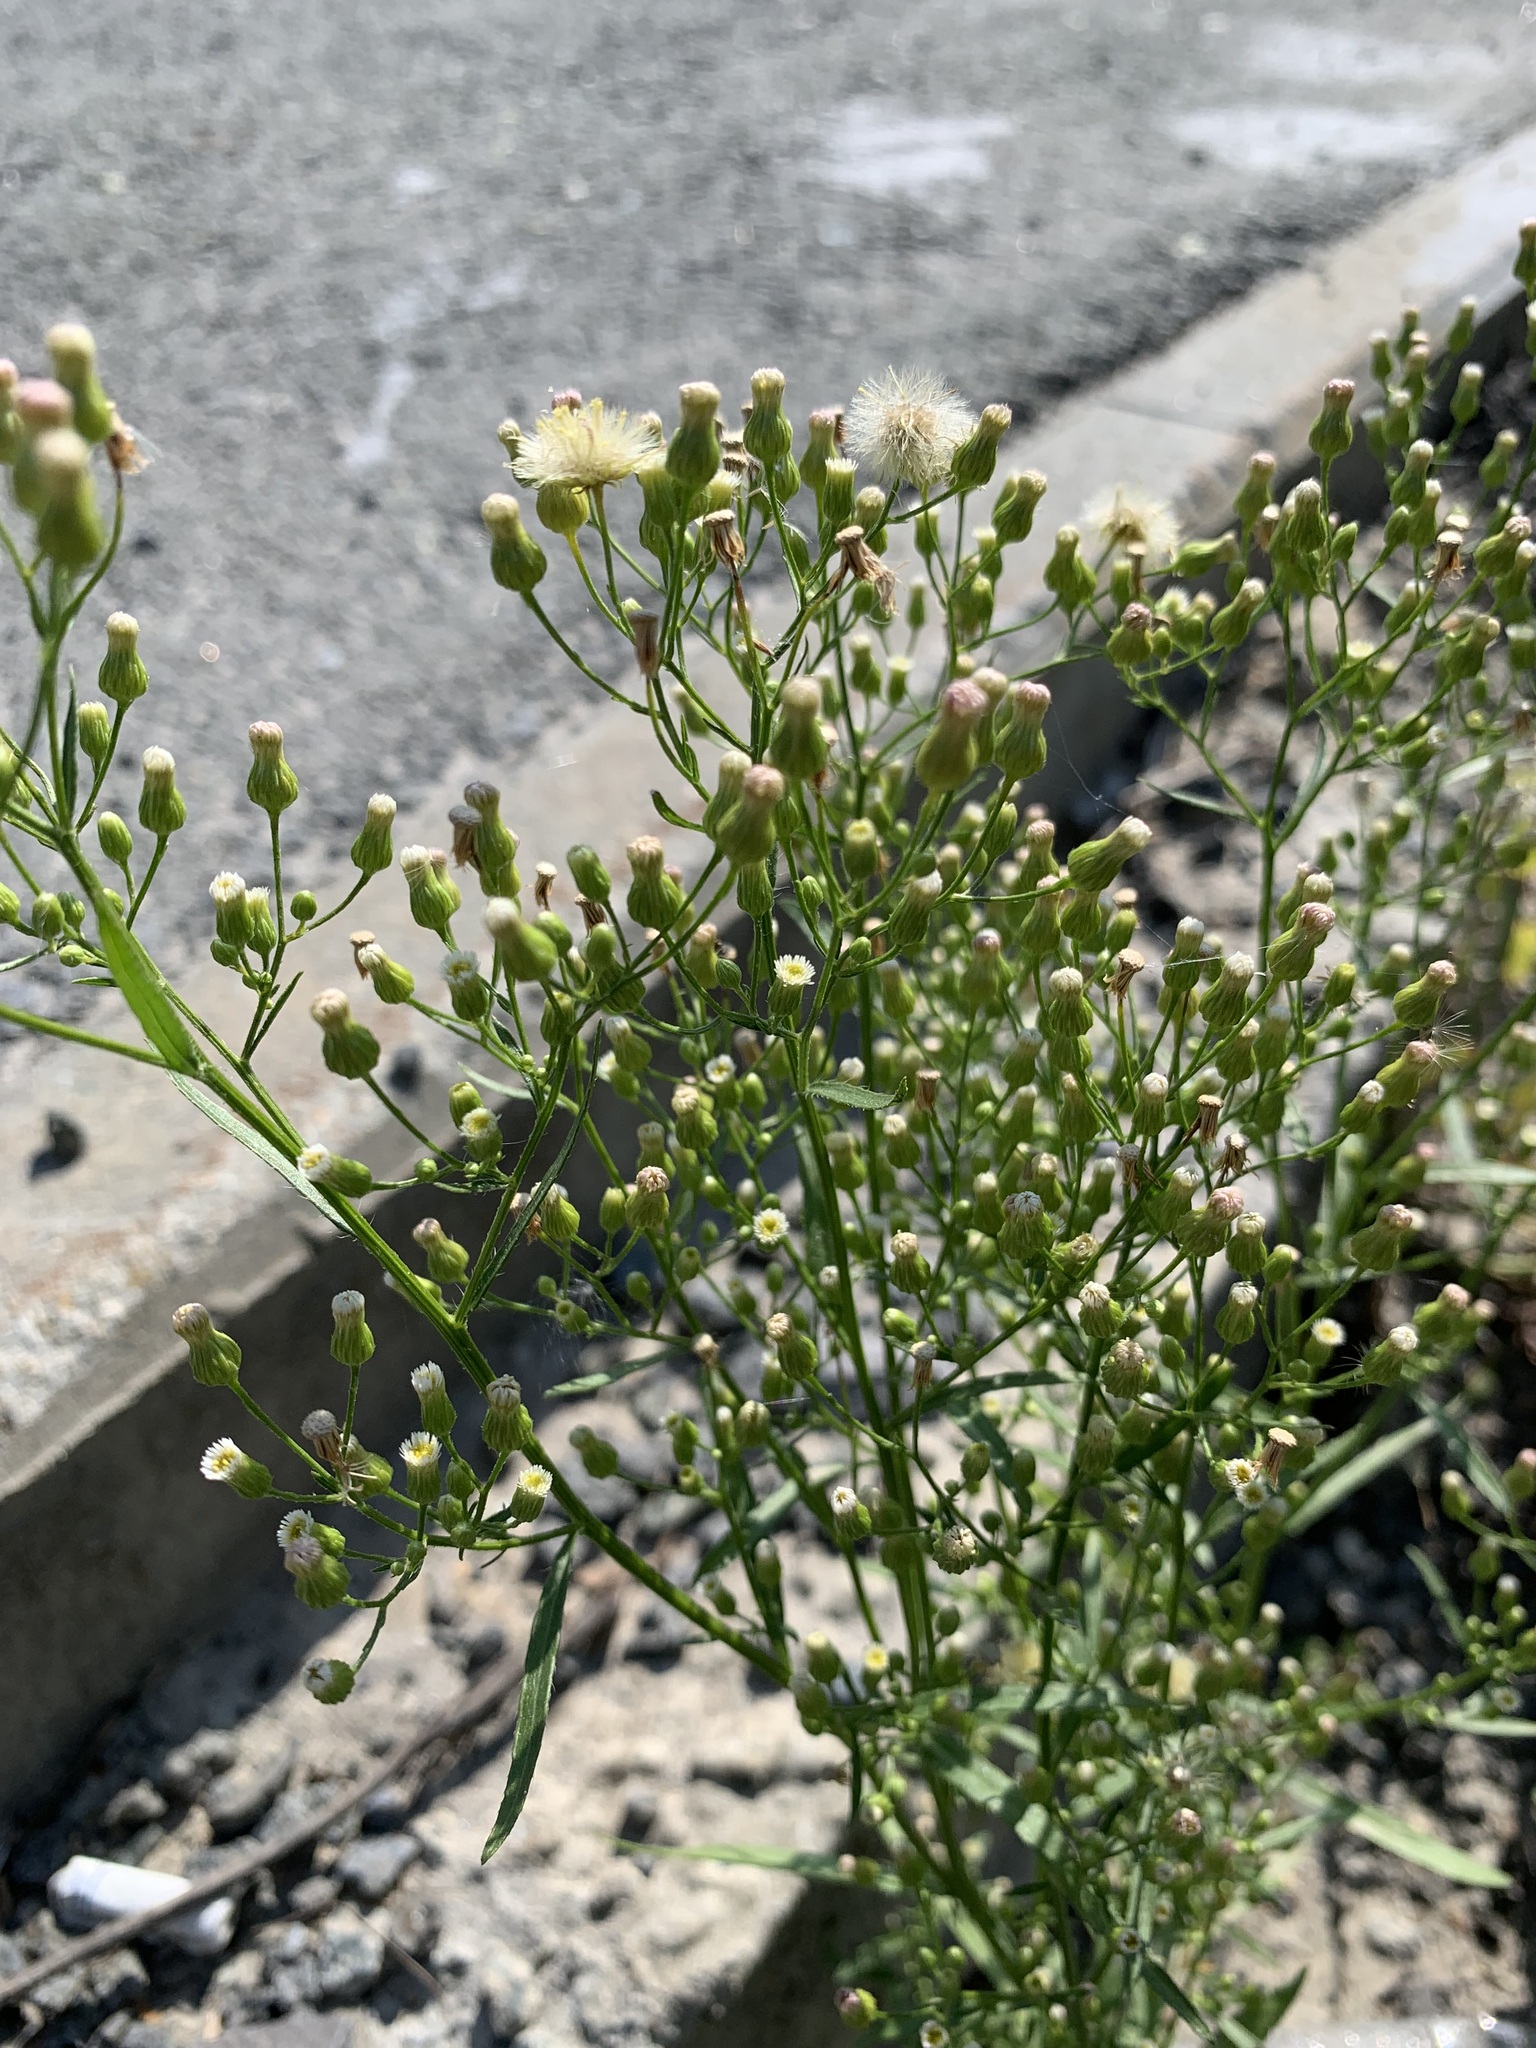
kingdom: Plantae
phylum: Tracheophyta
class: Magnoliopsida
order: Asterales
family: Asteraceae
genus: Erigeron
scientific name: Erigeron canadensis
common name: Canadian fleabane
